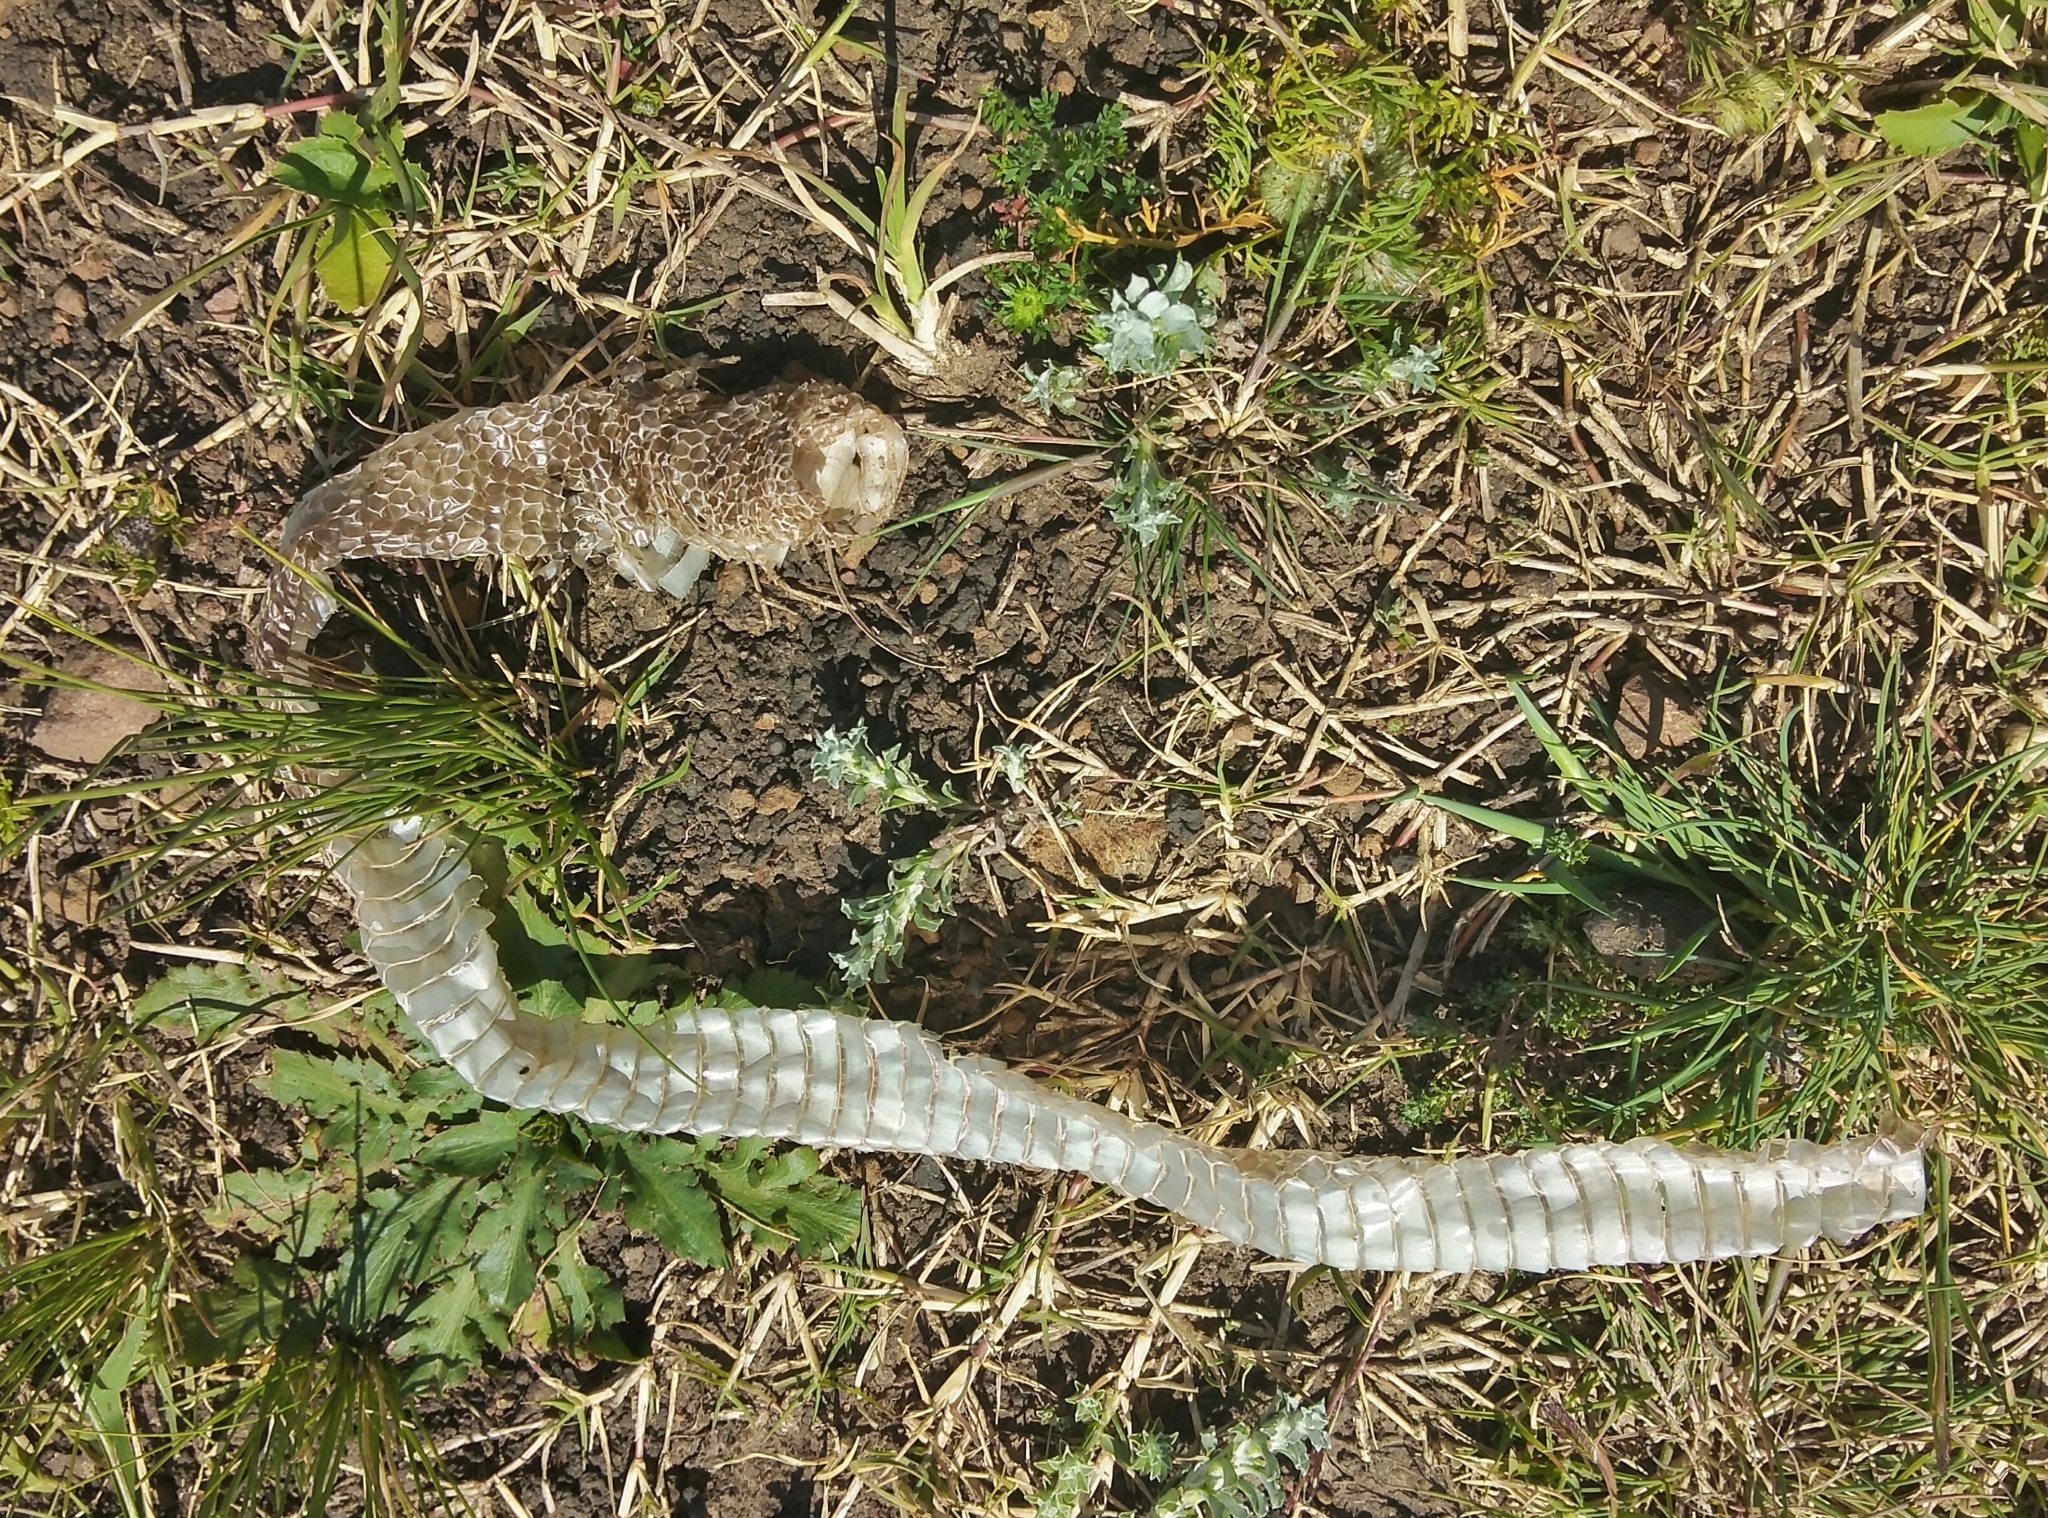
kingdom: Animalia
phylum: Chordata
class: Squamata
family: Colubridae
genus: Philodryas
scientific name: Philodryas patagoniensis
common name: Patagonia green racer
